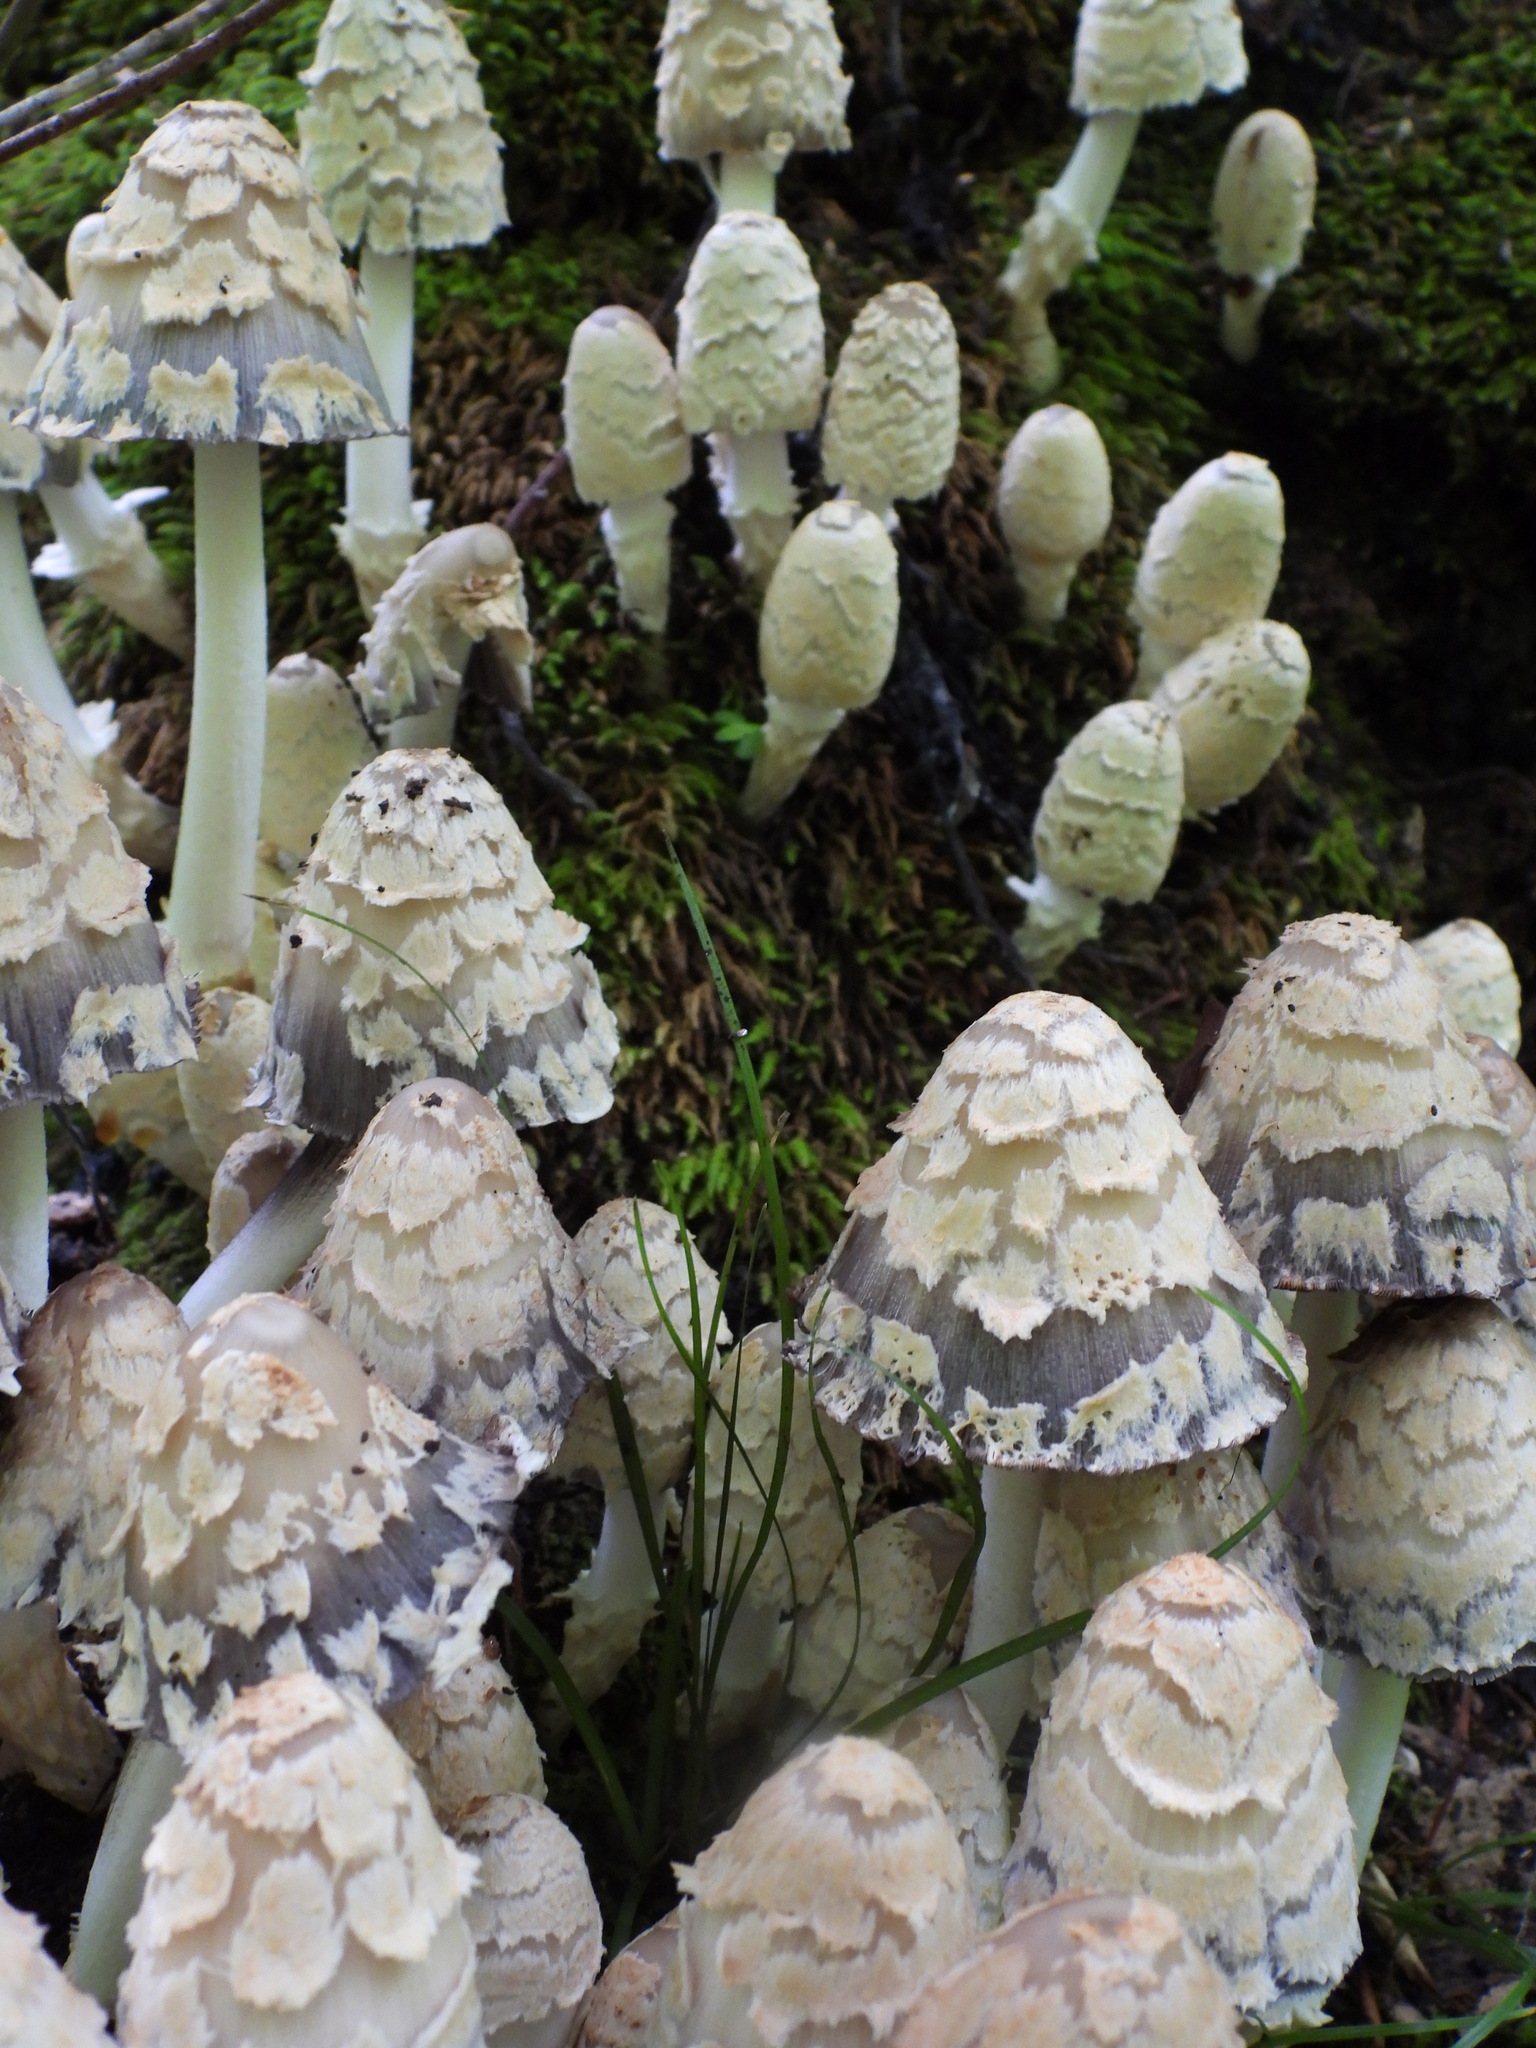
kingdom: Fungi
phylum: Basidiomycota
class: Agaricomycetes
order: Agaricales
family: Psathyrellaceae
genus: Coprinopsis
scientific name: Coprinopsis variegata
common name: Scaly ink cap
